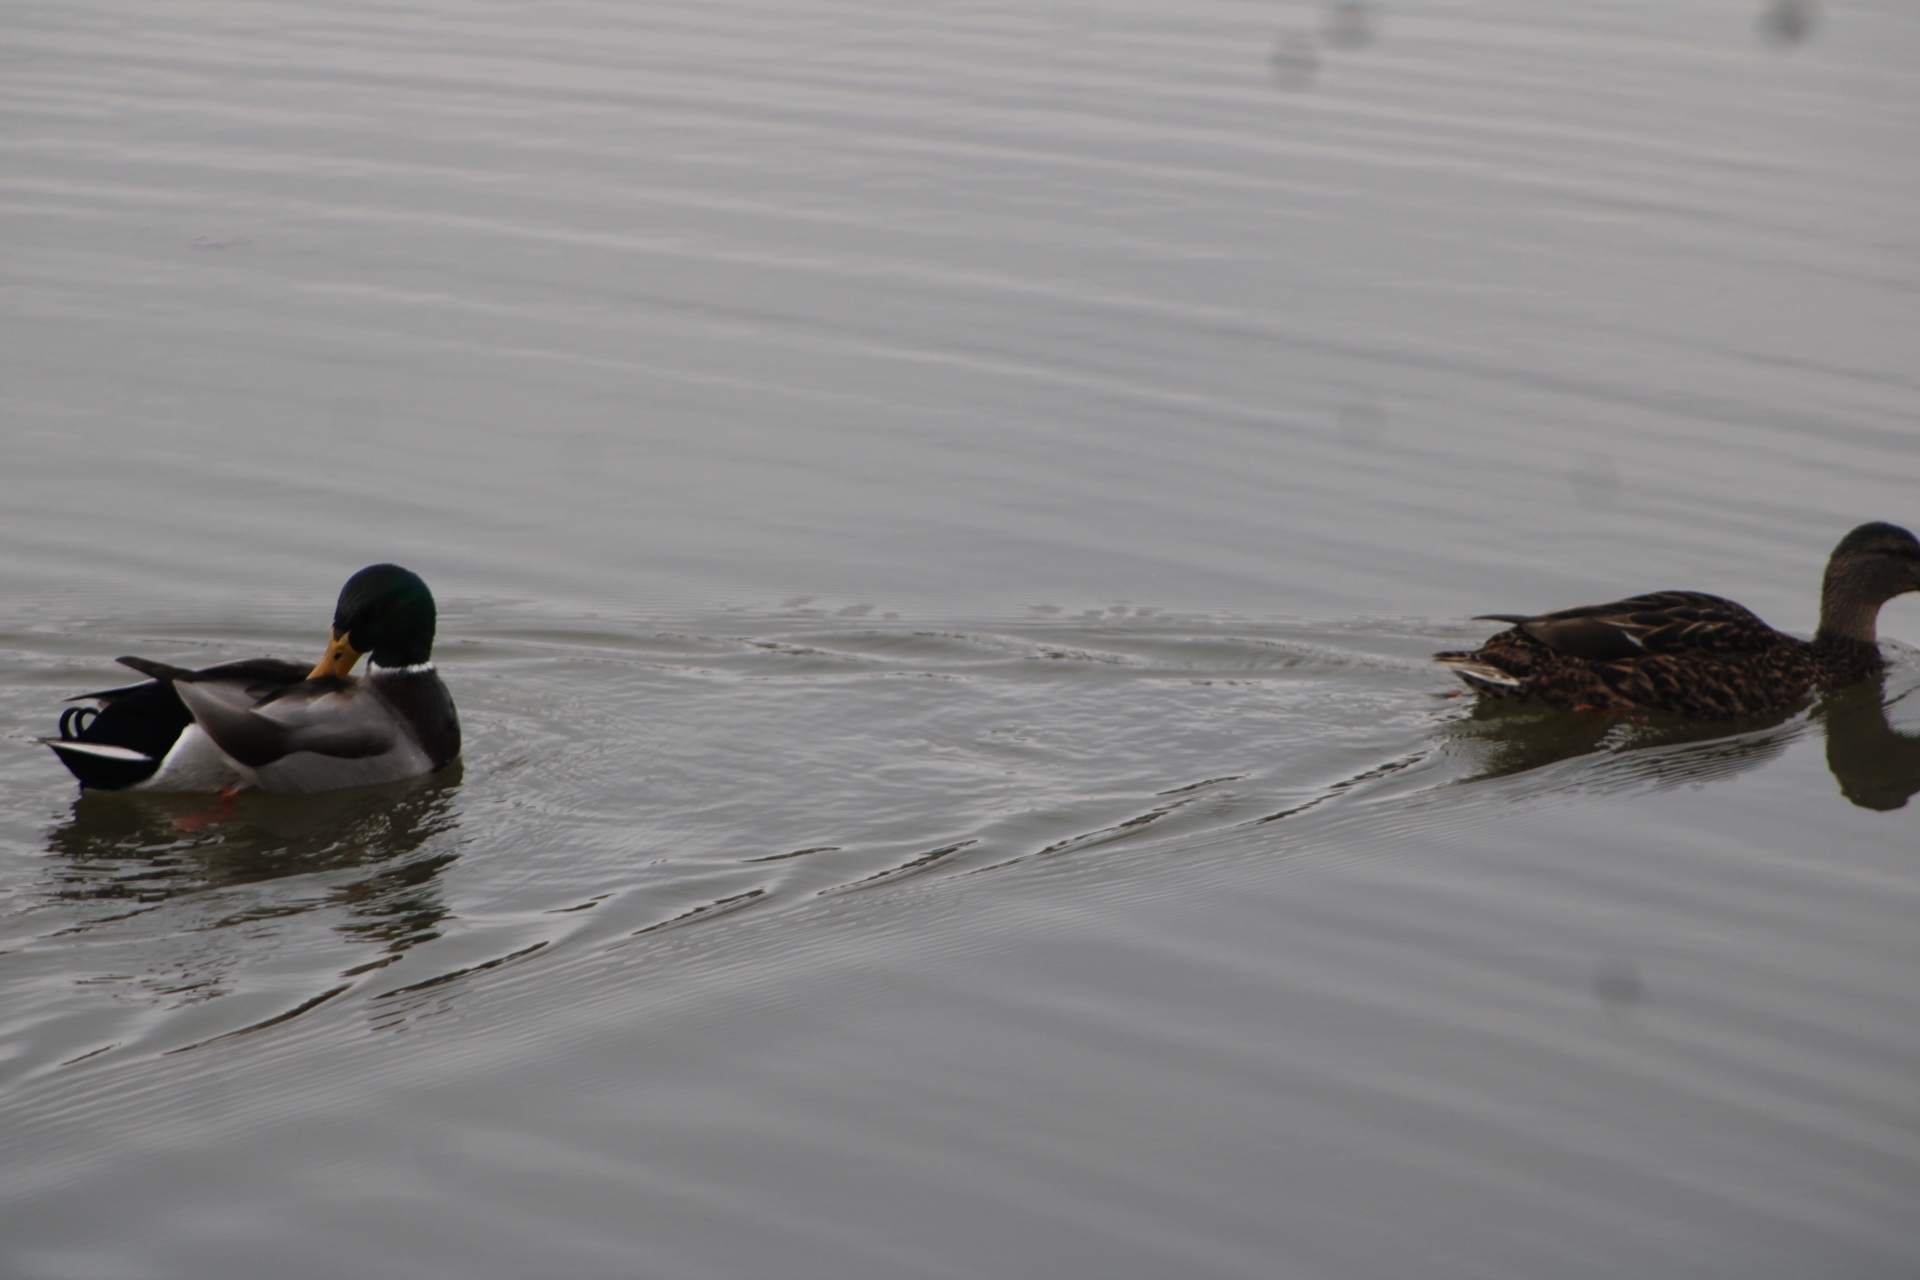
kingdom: Animalia
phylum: Chordata
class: Aves
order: Anseriformes
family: Anatidae
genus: Anas
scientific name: Anas platyrhynchos
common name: Mallard
